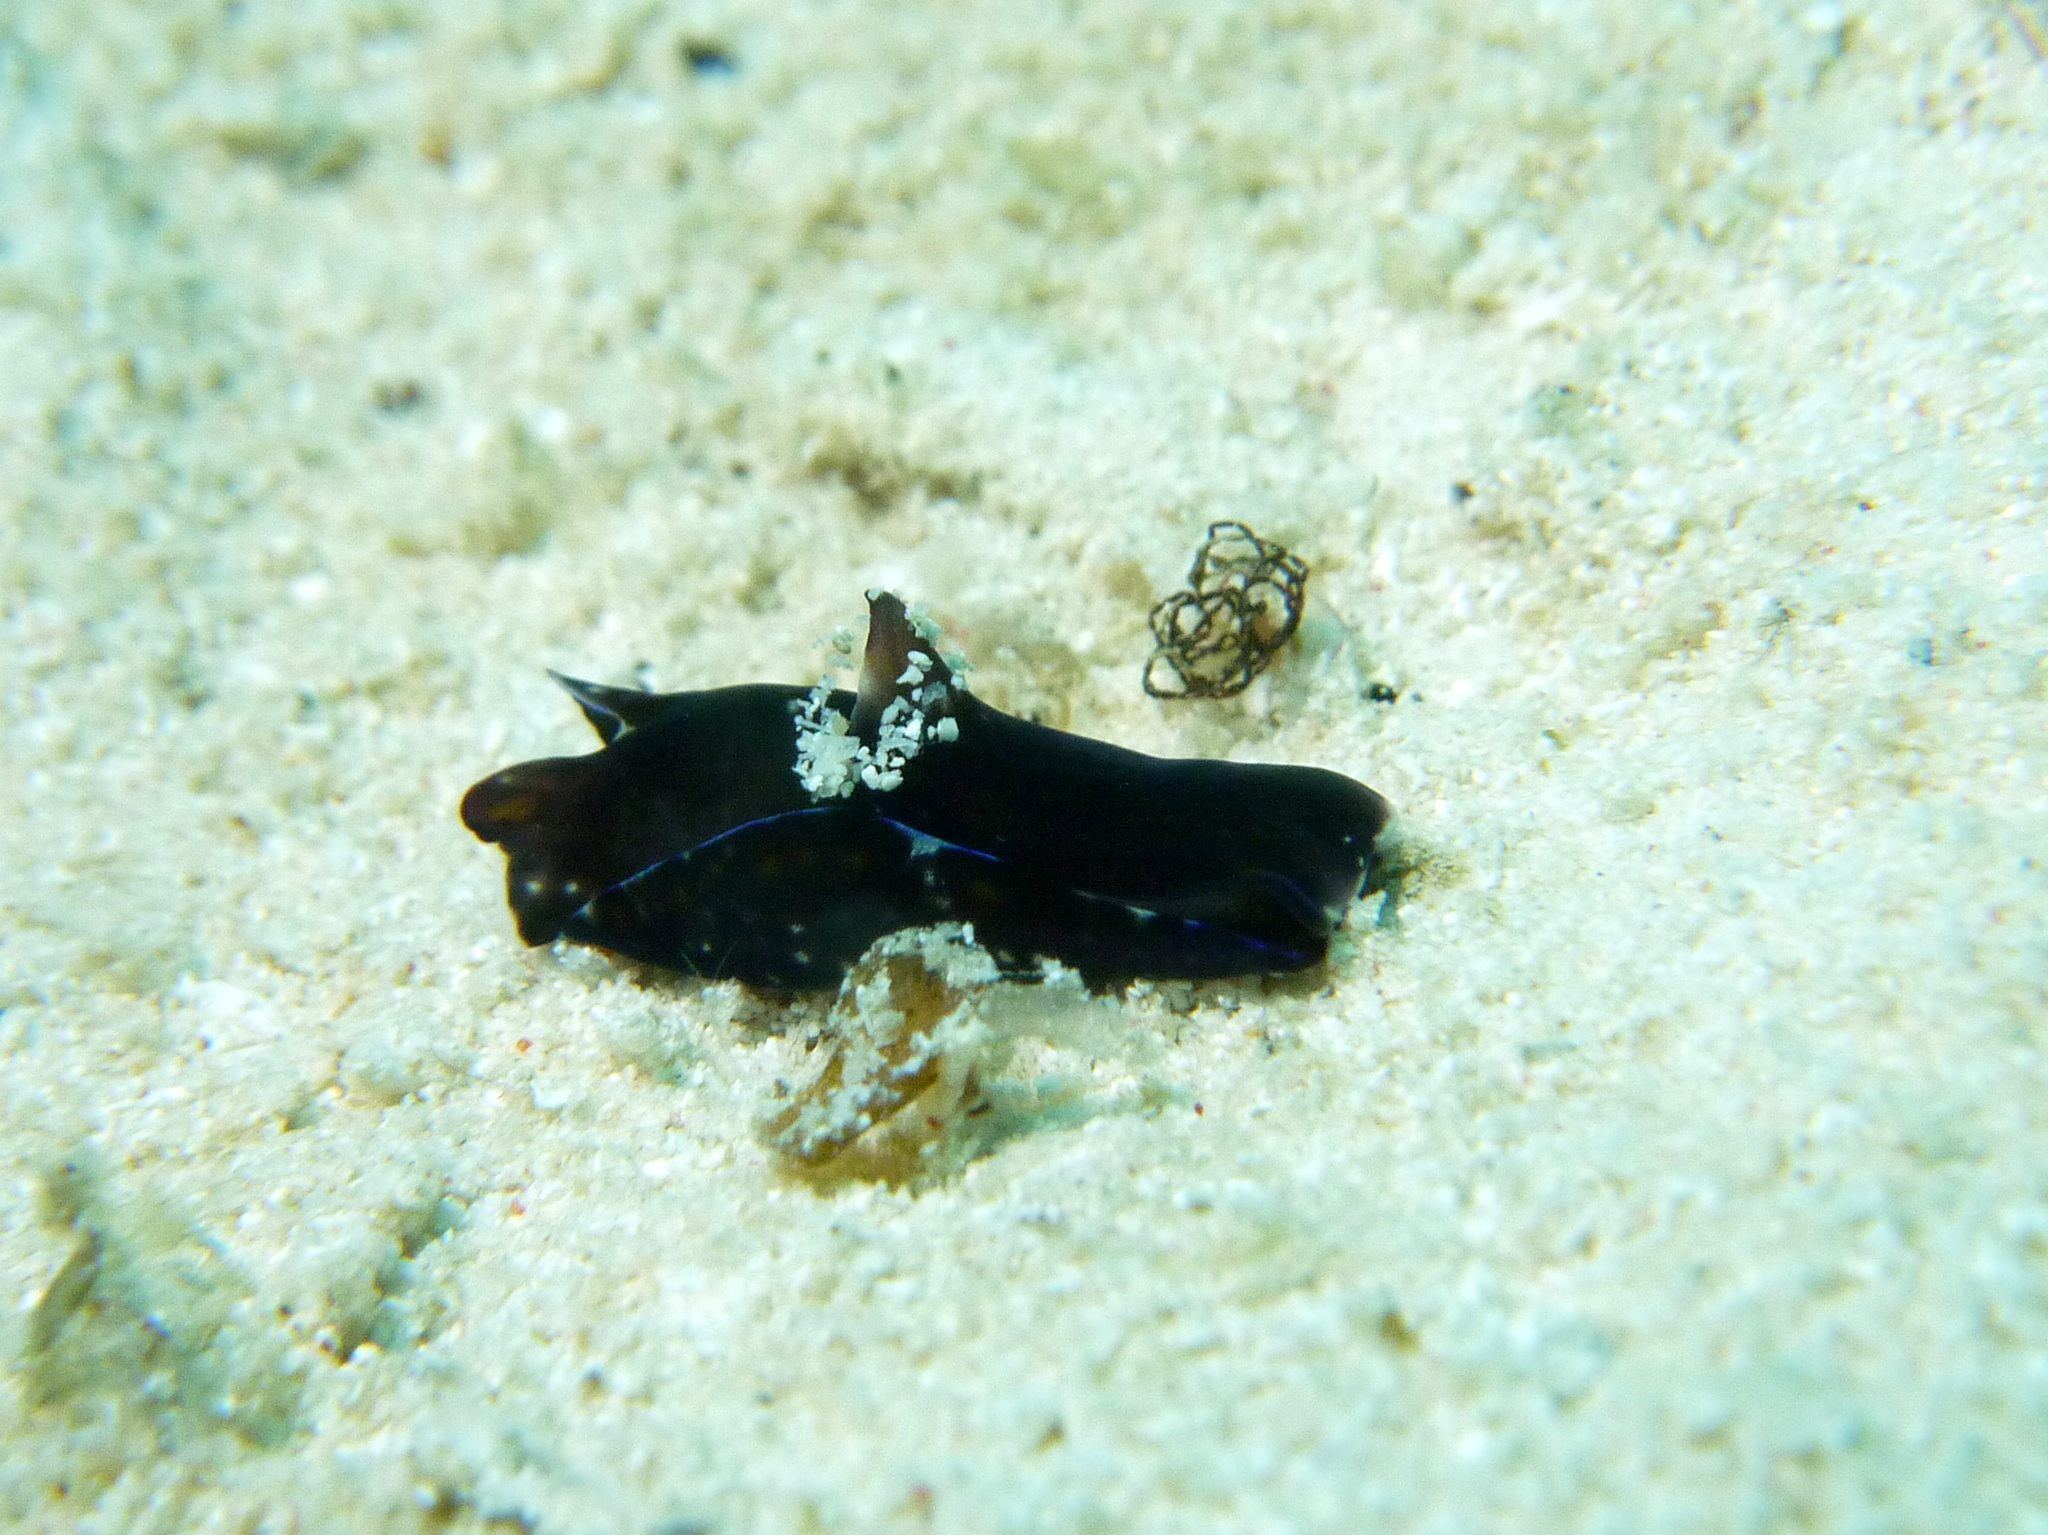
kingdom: Animalia
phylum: Mollusca
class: Gastropoda
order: Cephalaspidea
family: Aglajidae
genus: Tubulophilinopsis
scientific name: Tubulophilinopsis gardineri
